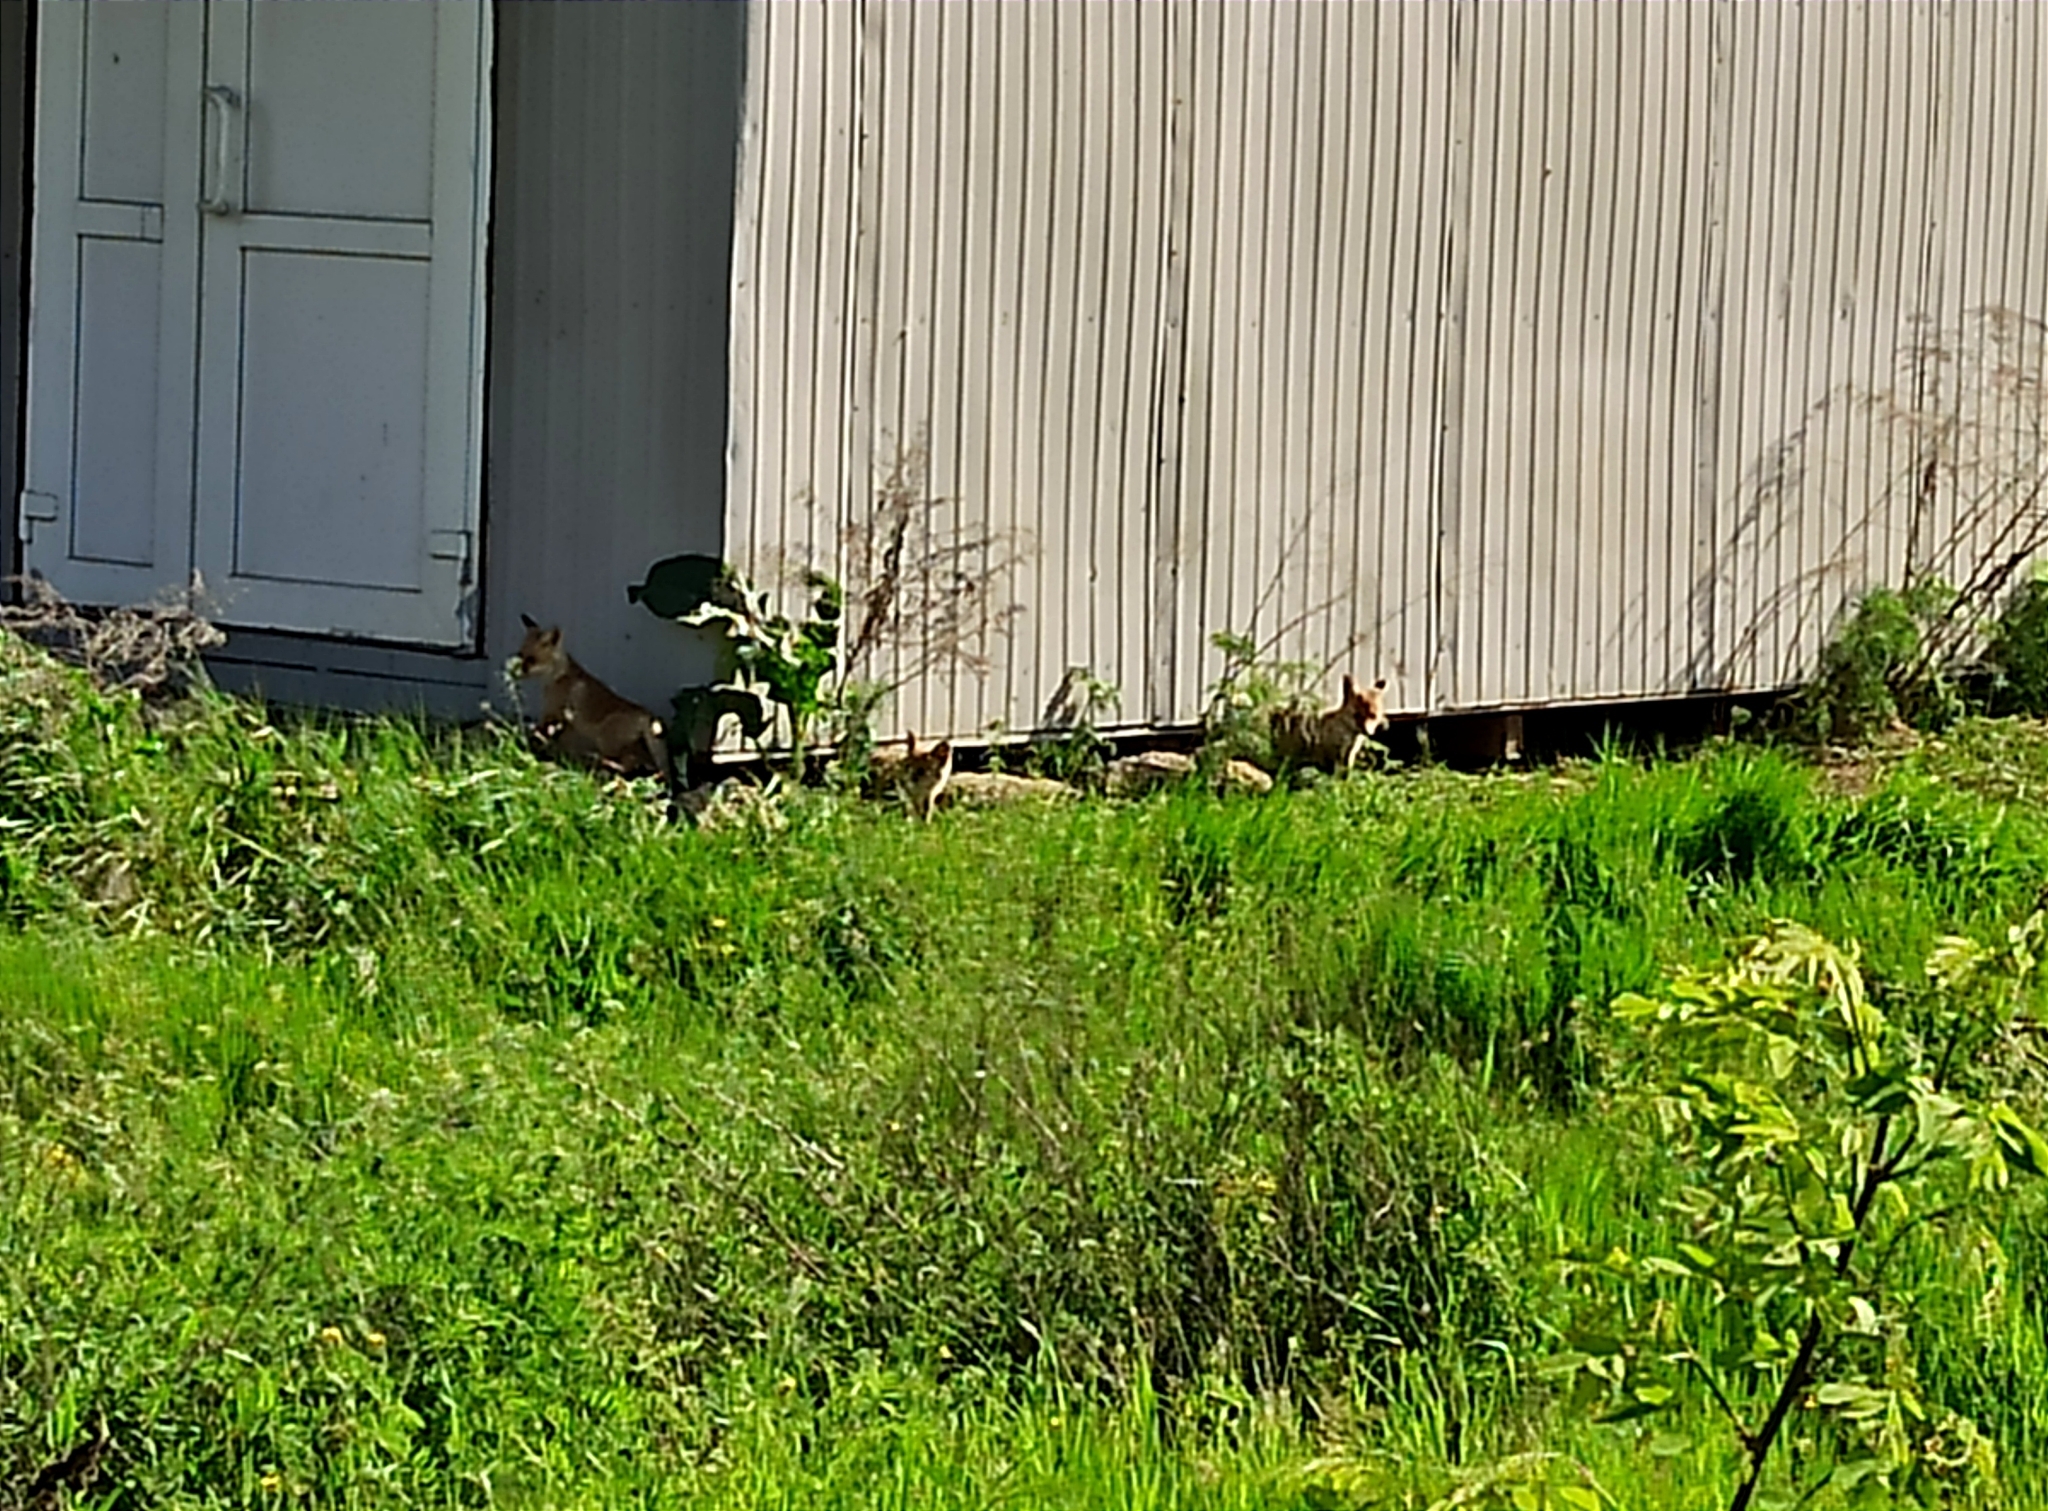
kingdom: Animalia
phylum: Chordata
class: Mammalia
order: Carnivora
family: Canidae
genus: Vulpes
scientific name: Vulpes vulpes
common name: Red fox
